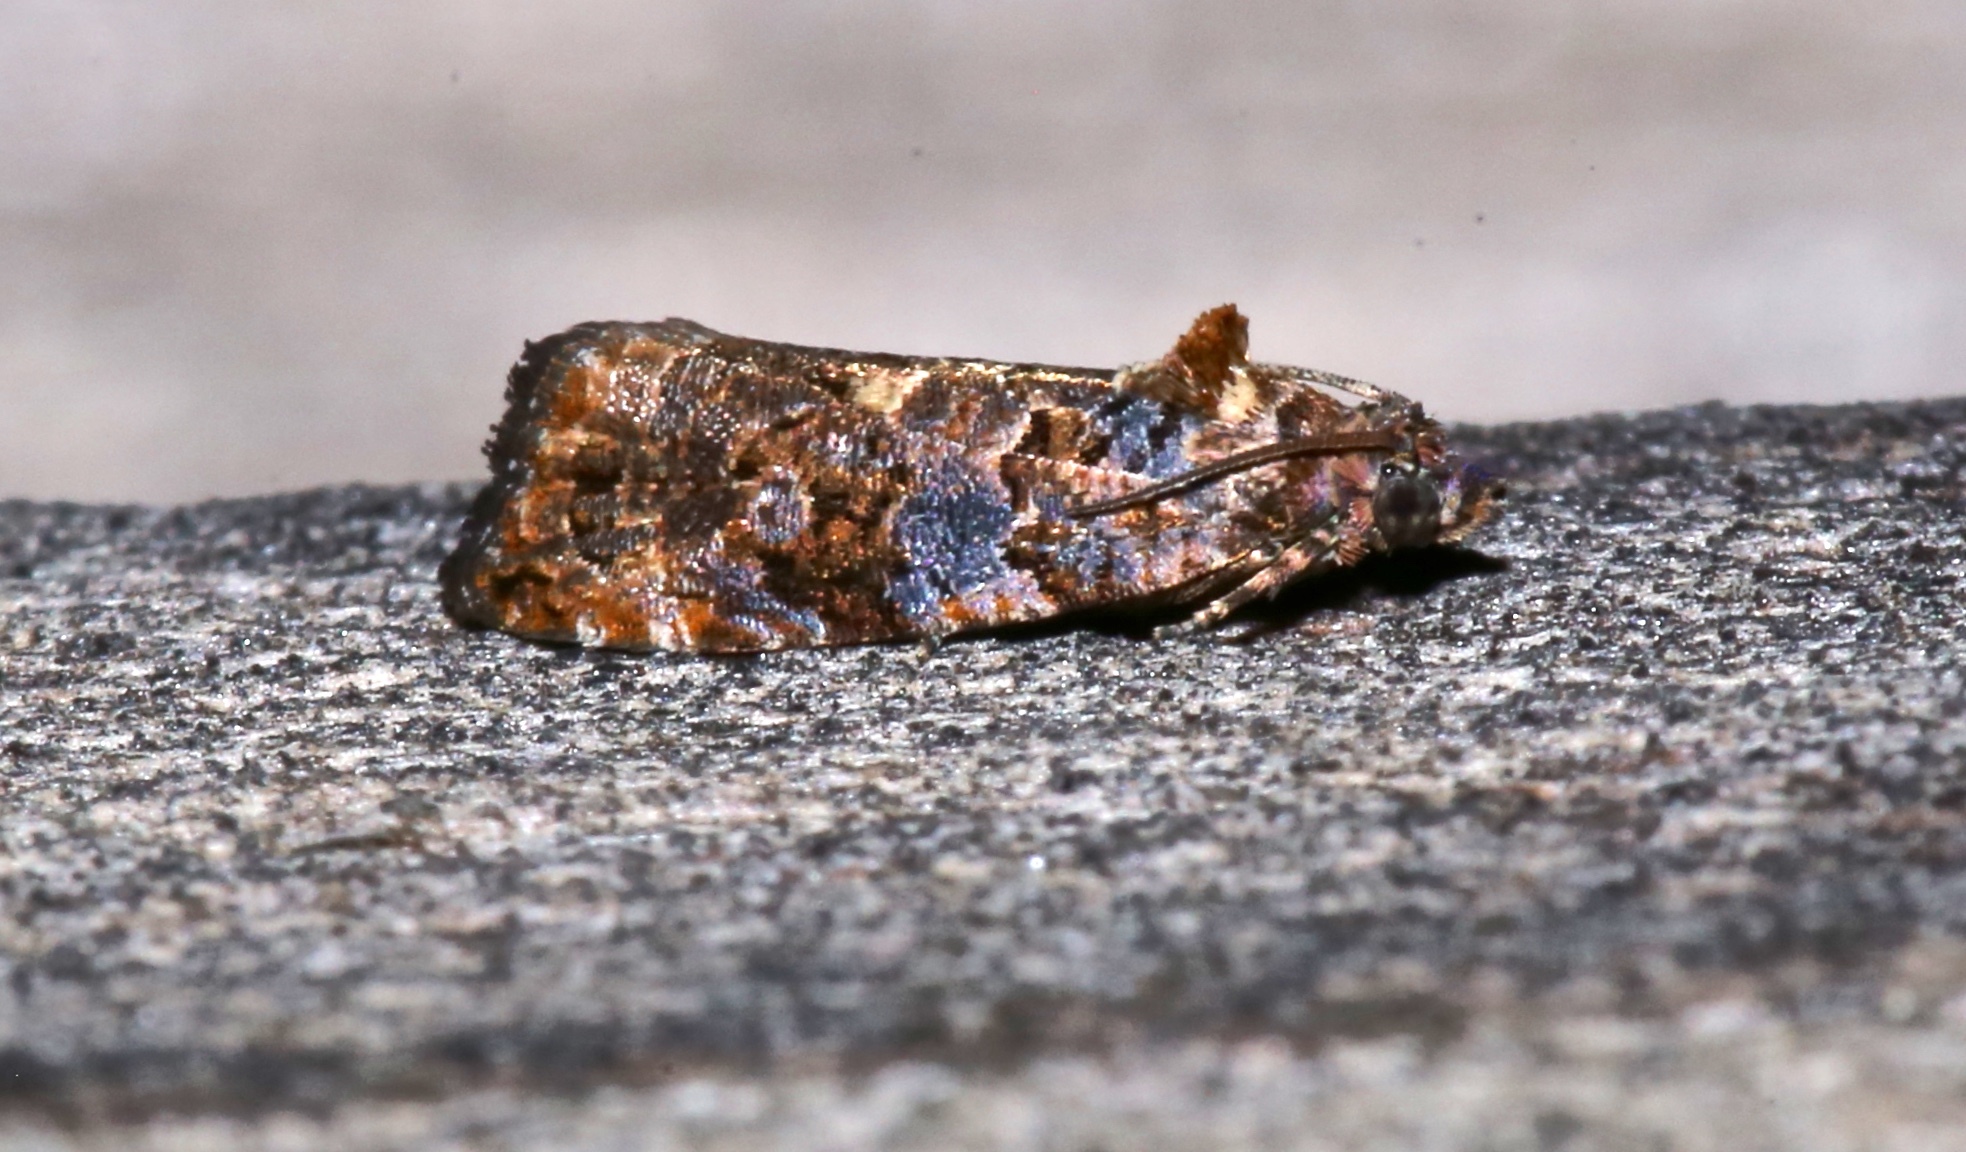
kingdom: Animalia
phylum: Arthropoda
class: Insecta
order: Lepidoptera
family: Tortricidae
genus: Endothenia
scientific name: Endothenia hebesana
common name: Verbena bud moth
